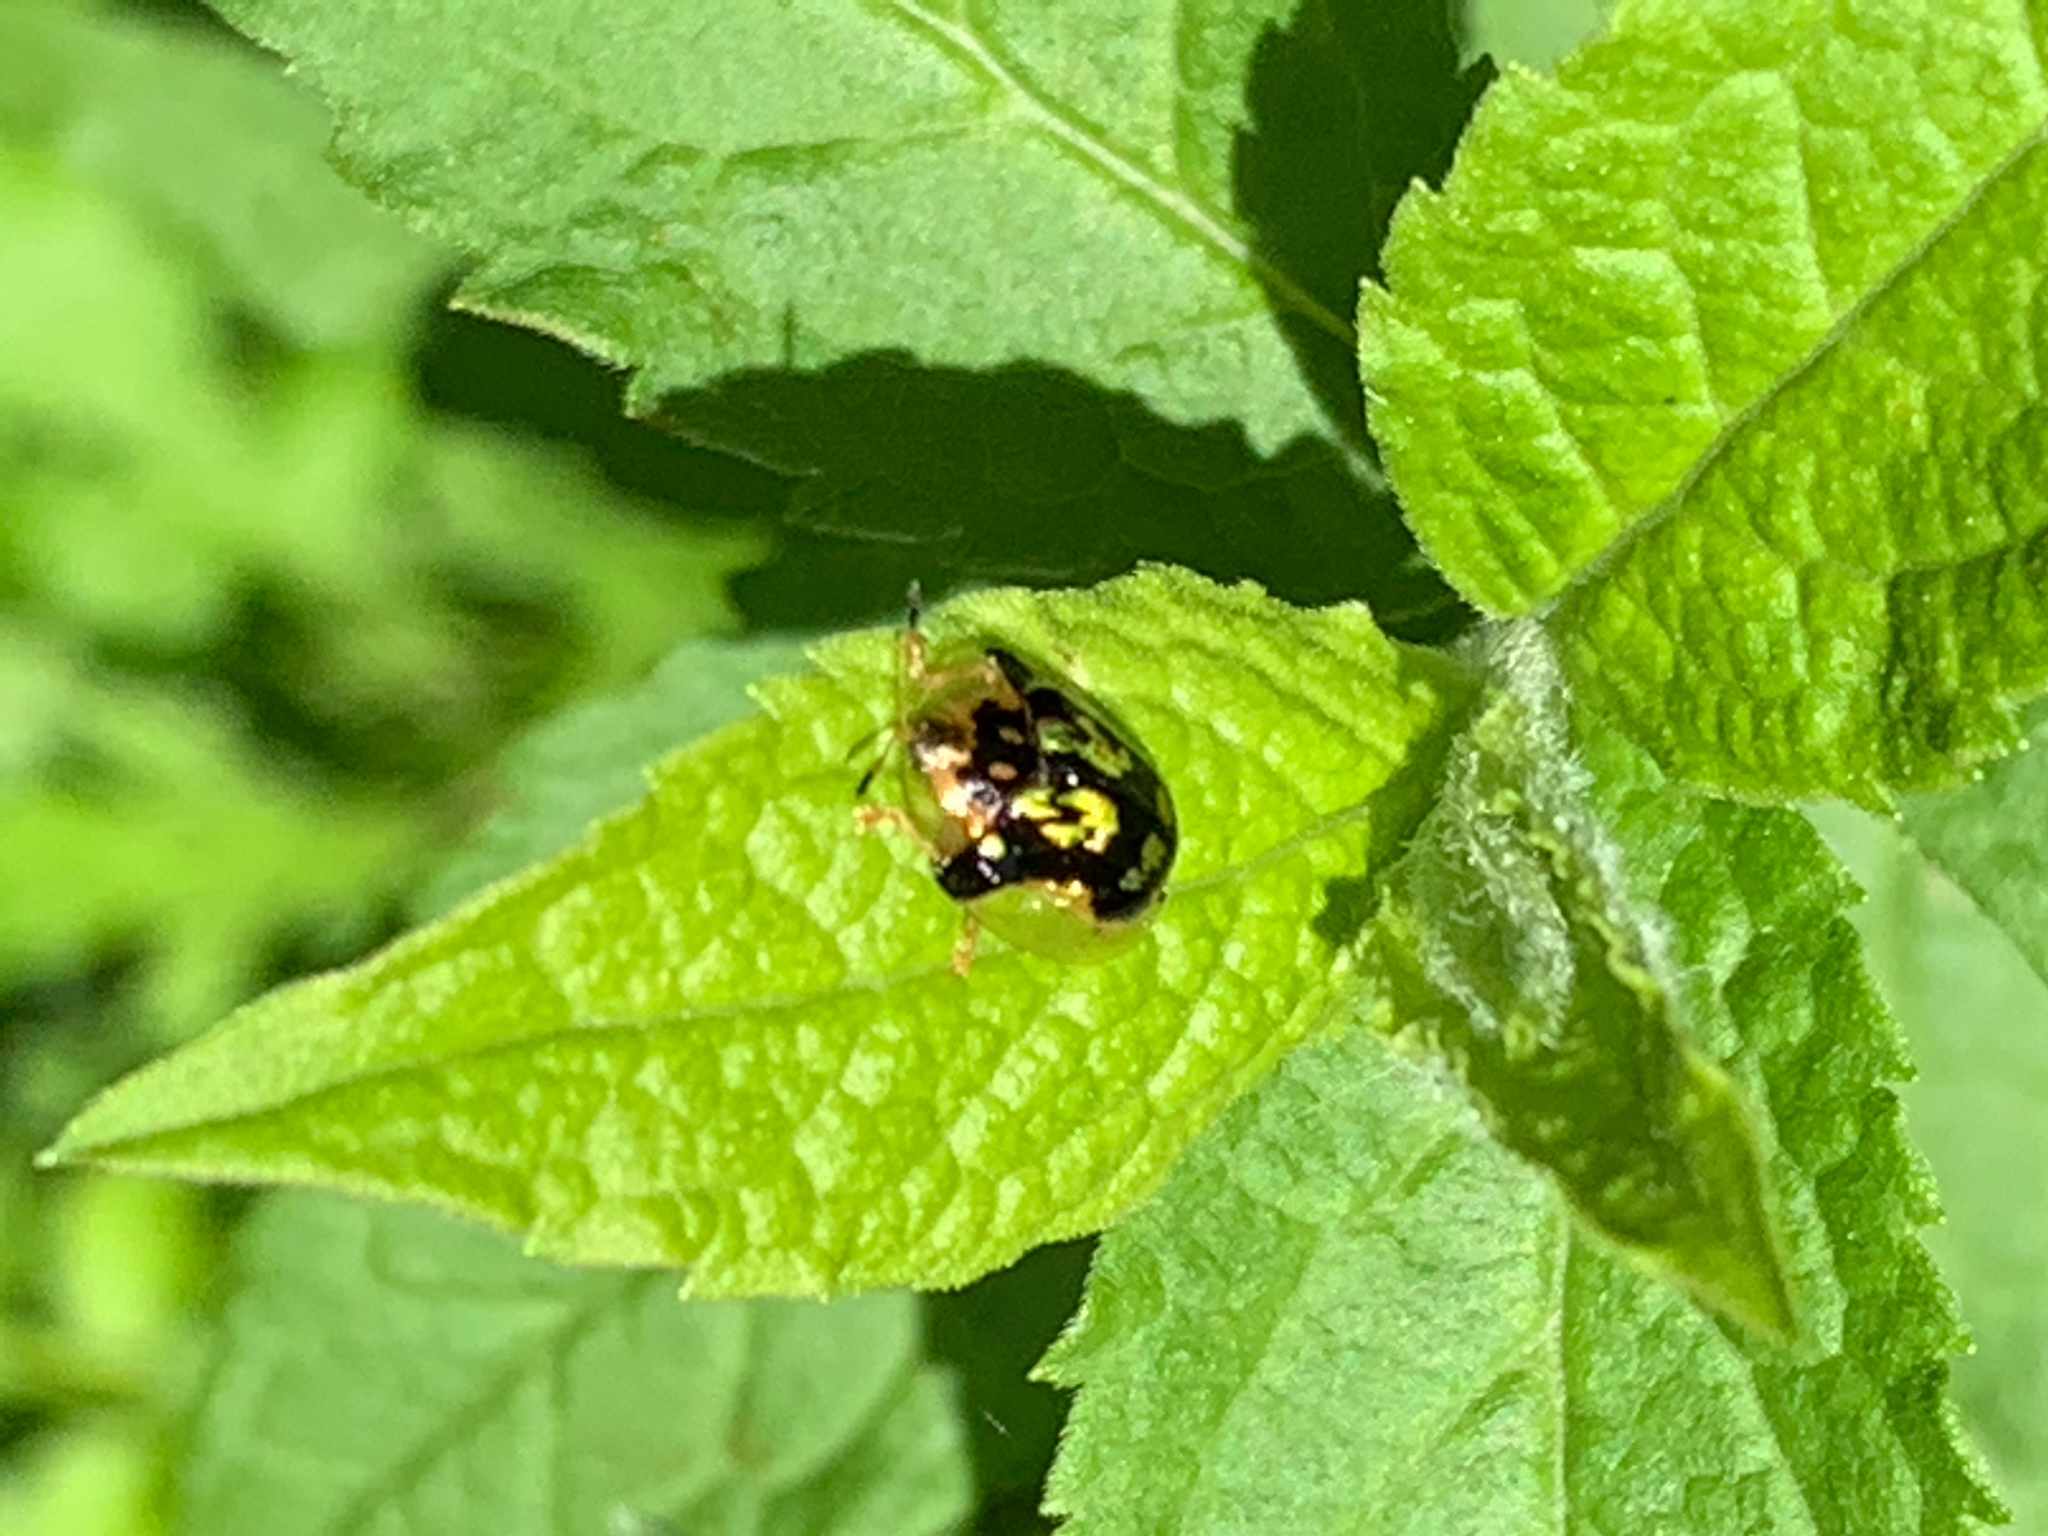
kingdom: Animalia
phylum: Arthropoda
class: Insecta
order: Coleoptera
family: Chrysomelidae
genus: Deloyala
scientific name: Deloyala guttata
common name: Mottled tortoise beetle
